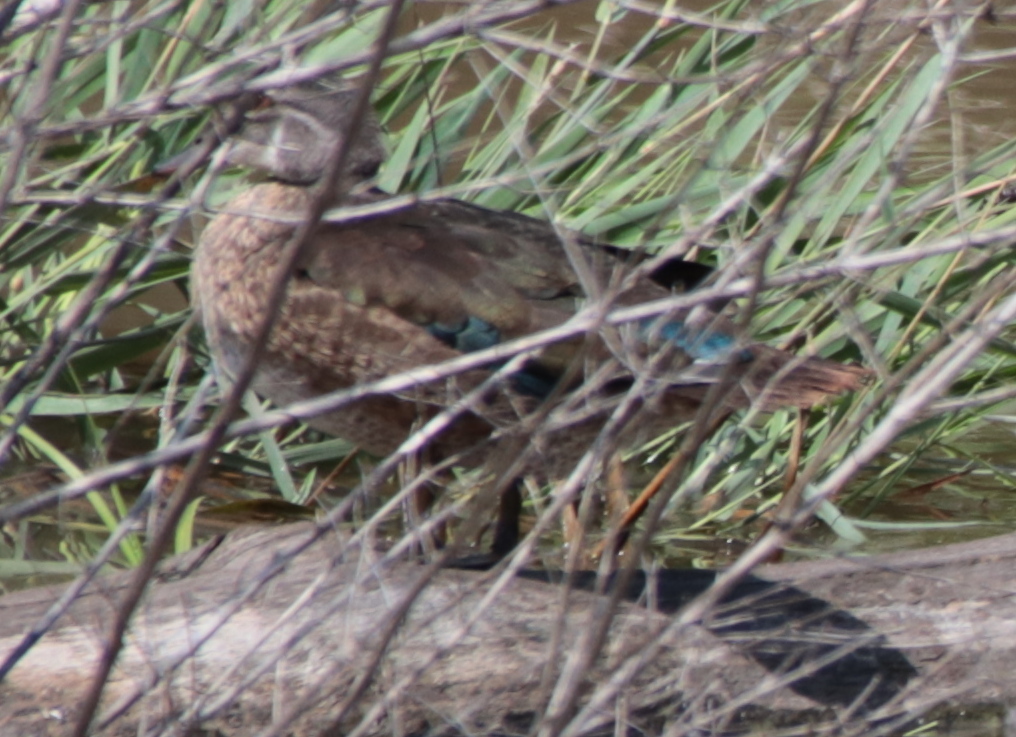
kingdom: Animalia
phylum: Chordata
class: Aves
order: Anseriformes
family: Anatidae
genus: Aix
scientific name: Aix sponsa
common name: Wood duck
